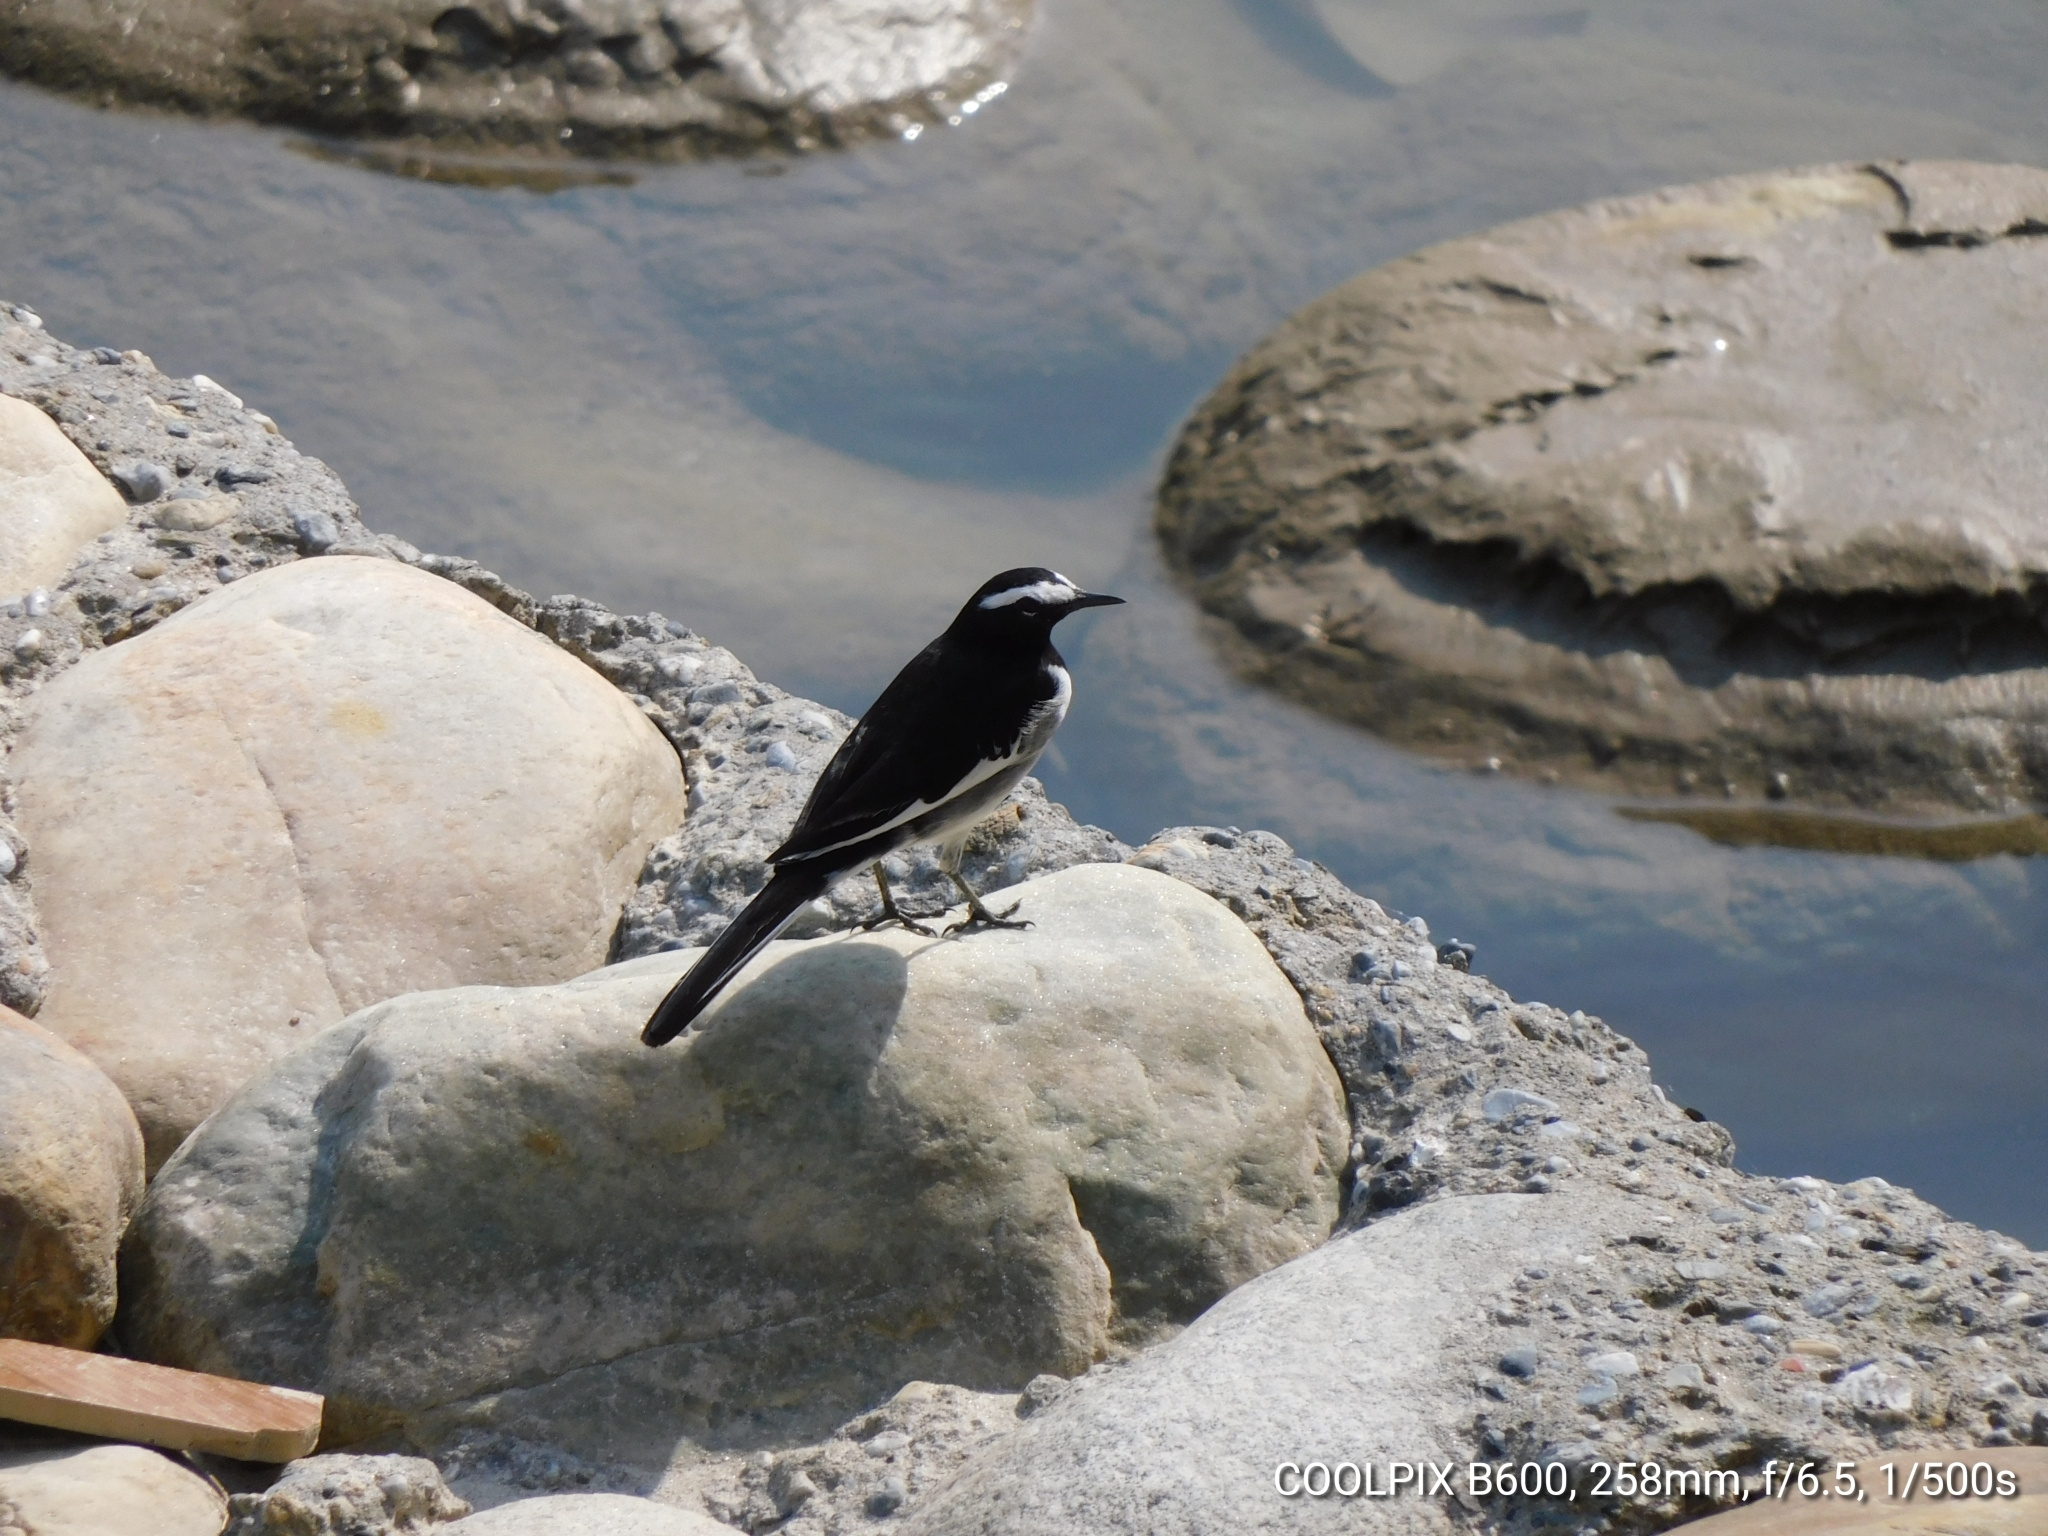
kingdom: Animalia
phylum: Chordata
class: Aves
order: Passeriformes
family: Motacillidae
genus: Motacilla
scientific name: Motacilla maderaspatensis
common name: White-browed wagtail
